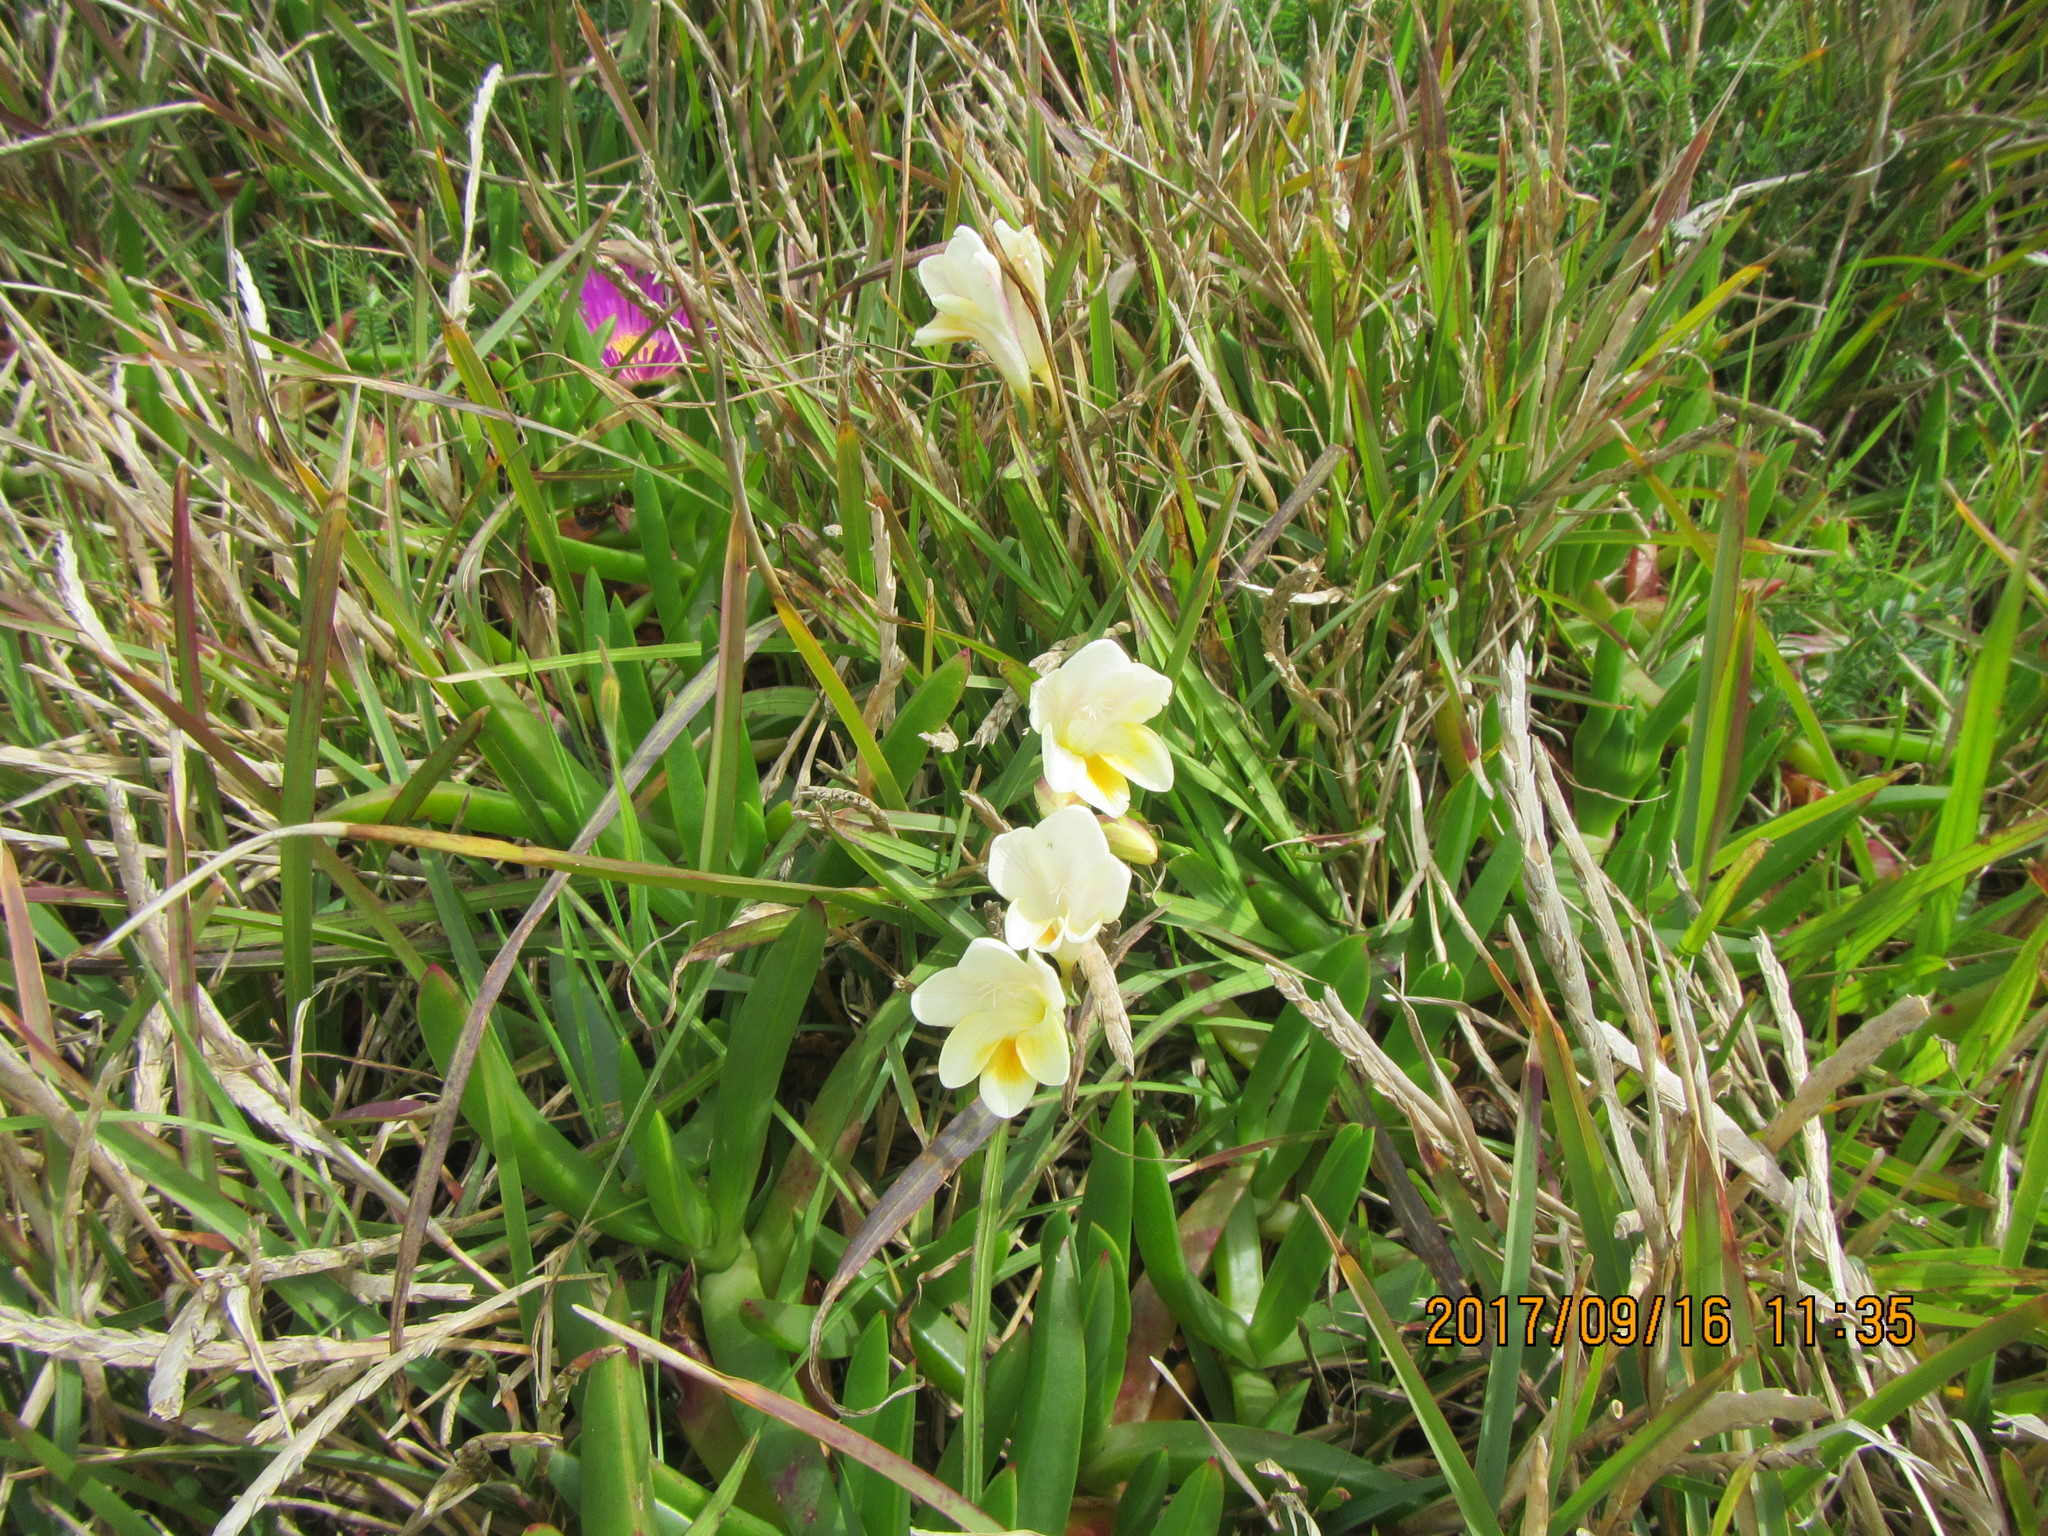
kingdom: Plantae
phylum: Tracheophyta
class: Liliopsida
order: Asparagales
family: Iridaceae
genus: Freesia
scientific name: Freesia leichtlinii
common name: Freesia
